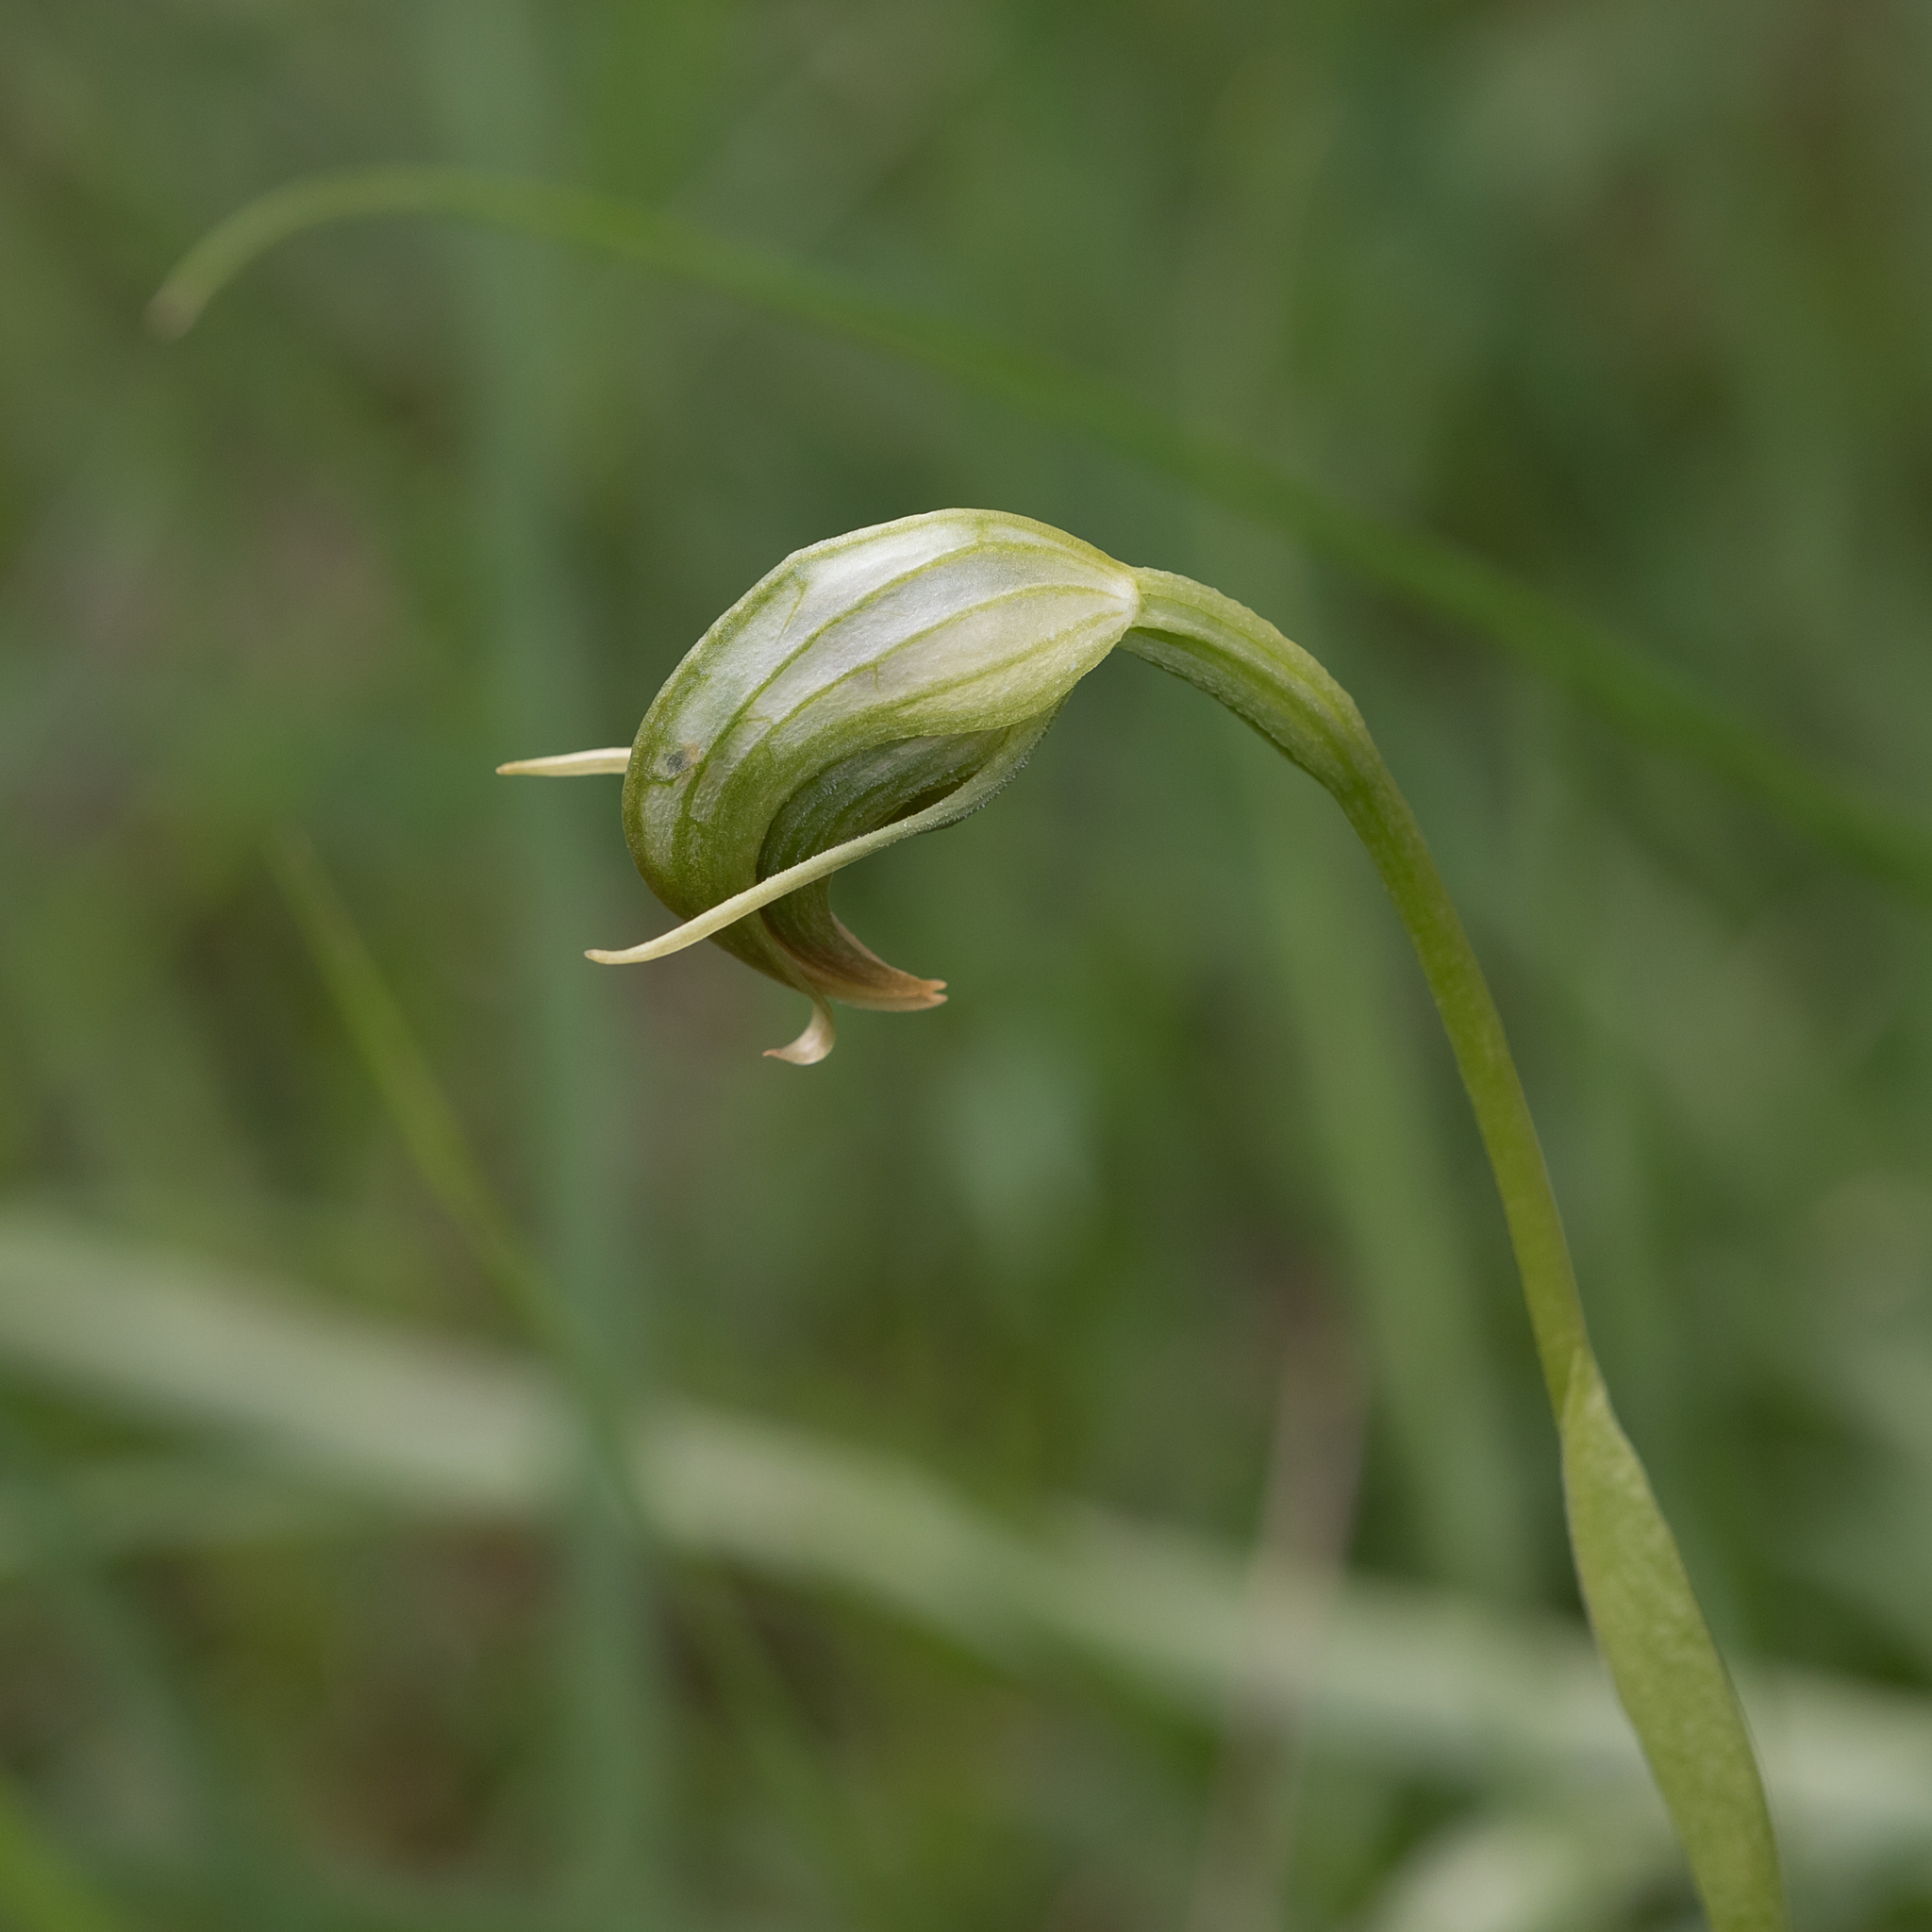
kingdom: Plantae
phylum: Tracheophyta
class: Liliopsida
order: Asparagales
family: Orchidaceae
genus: Pterostylis
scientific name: Pterostylis nutans
